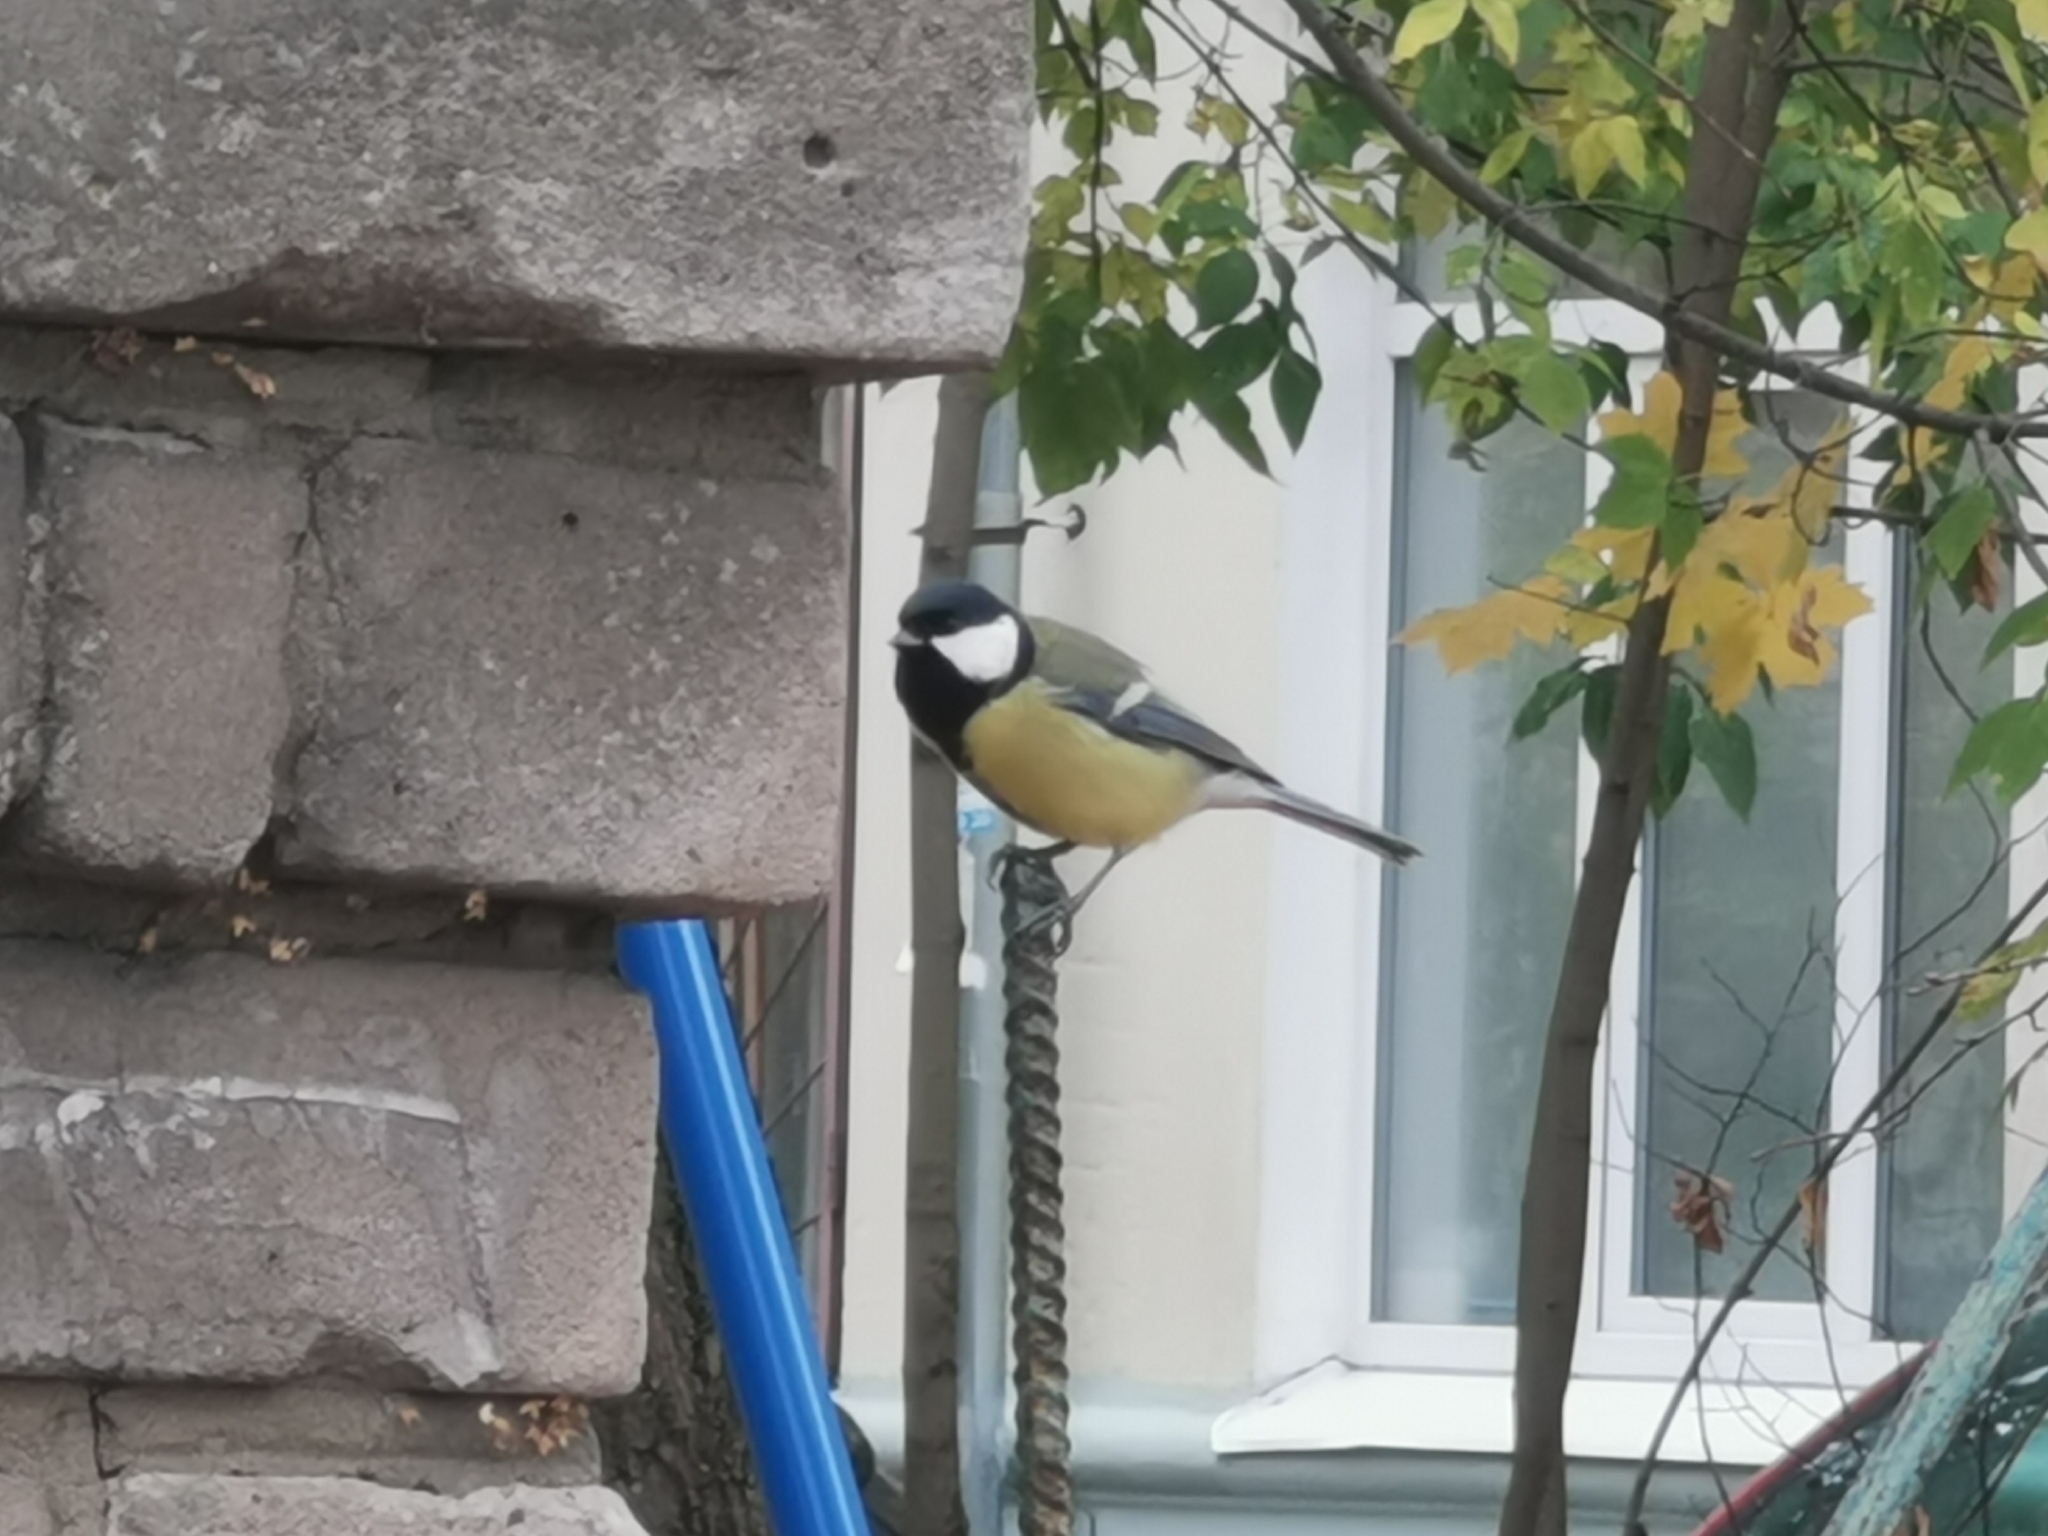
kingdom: Animalia
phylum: Chordata
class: Aves
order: Passeriformes
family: Paridae
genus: Parus
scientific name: Parus major
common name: Great tit
